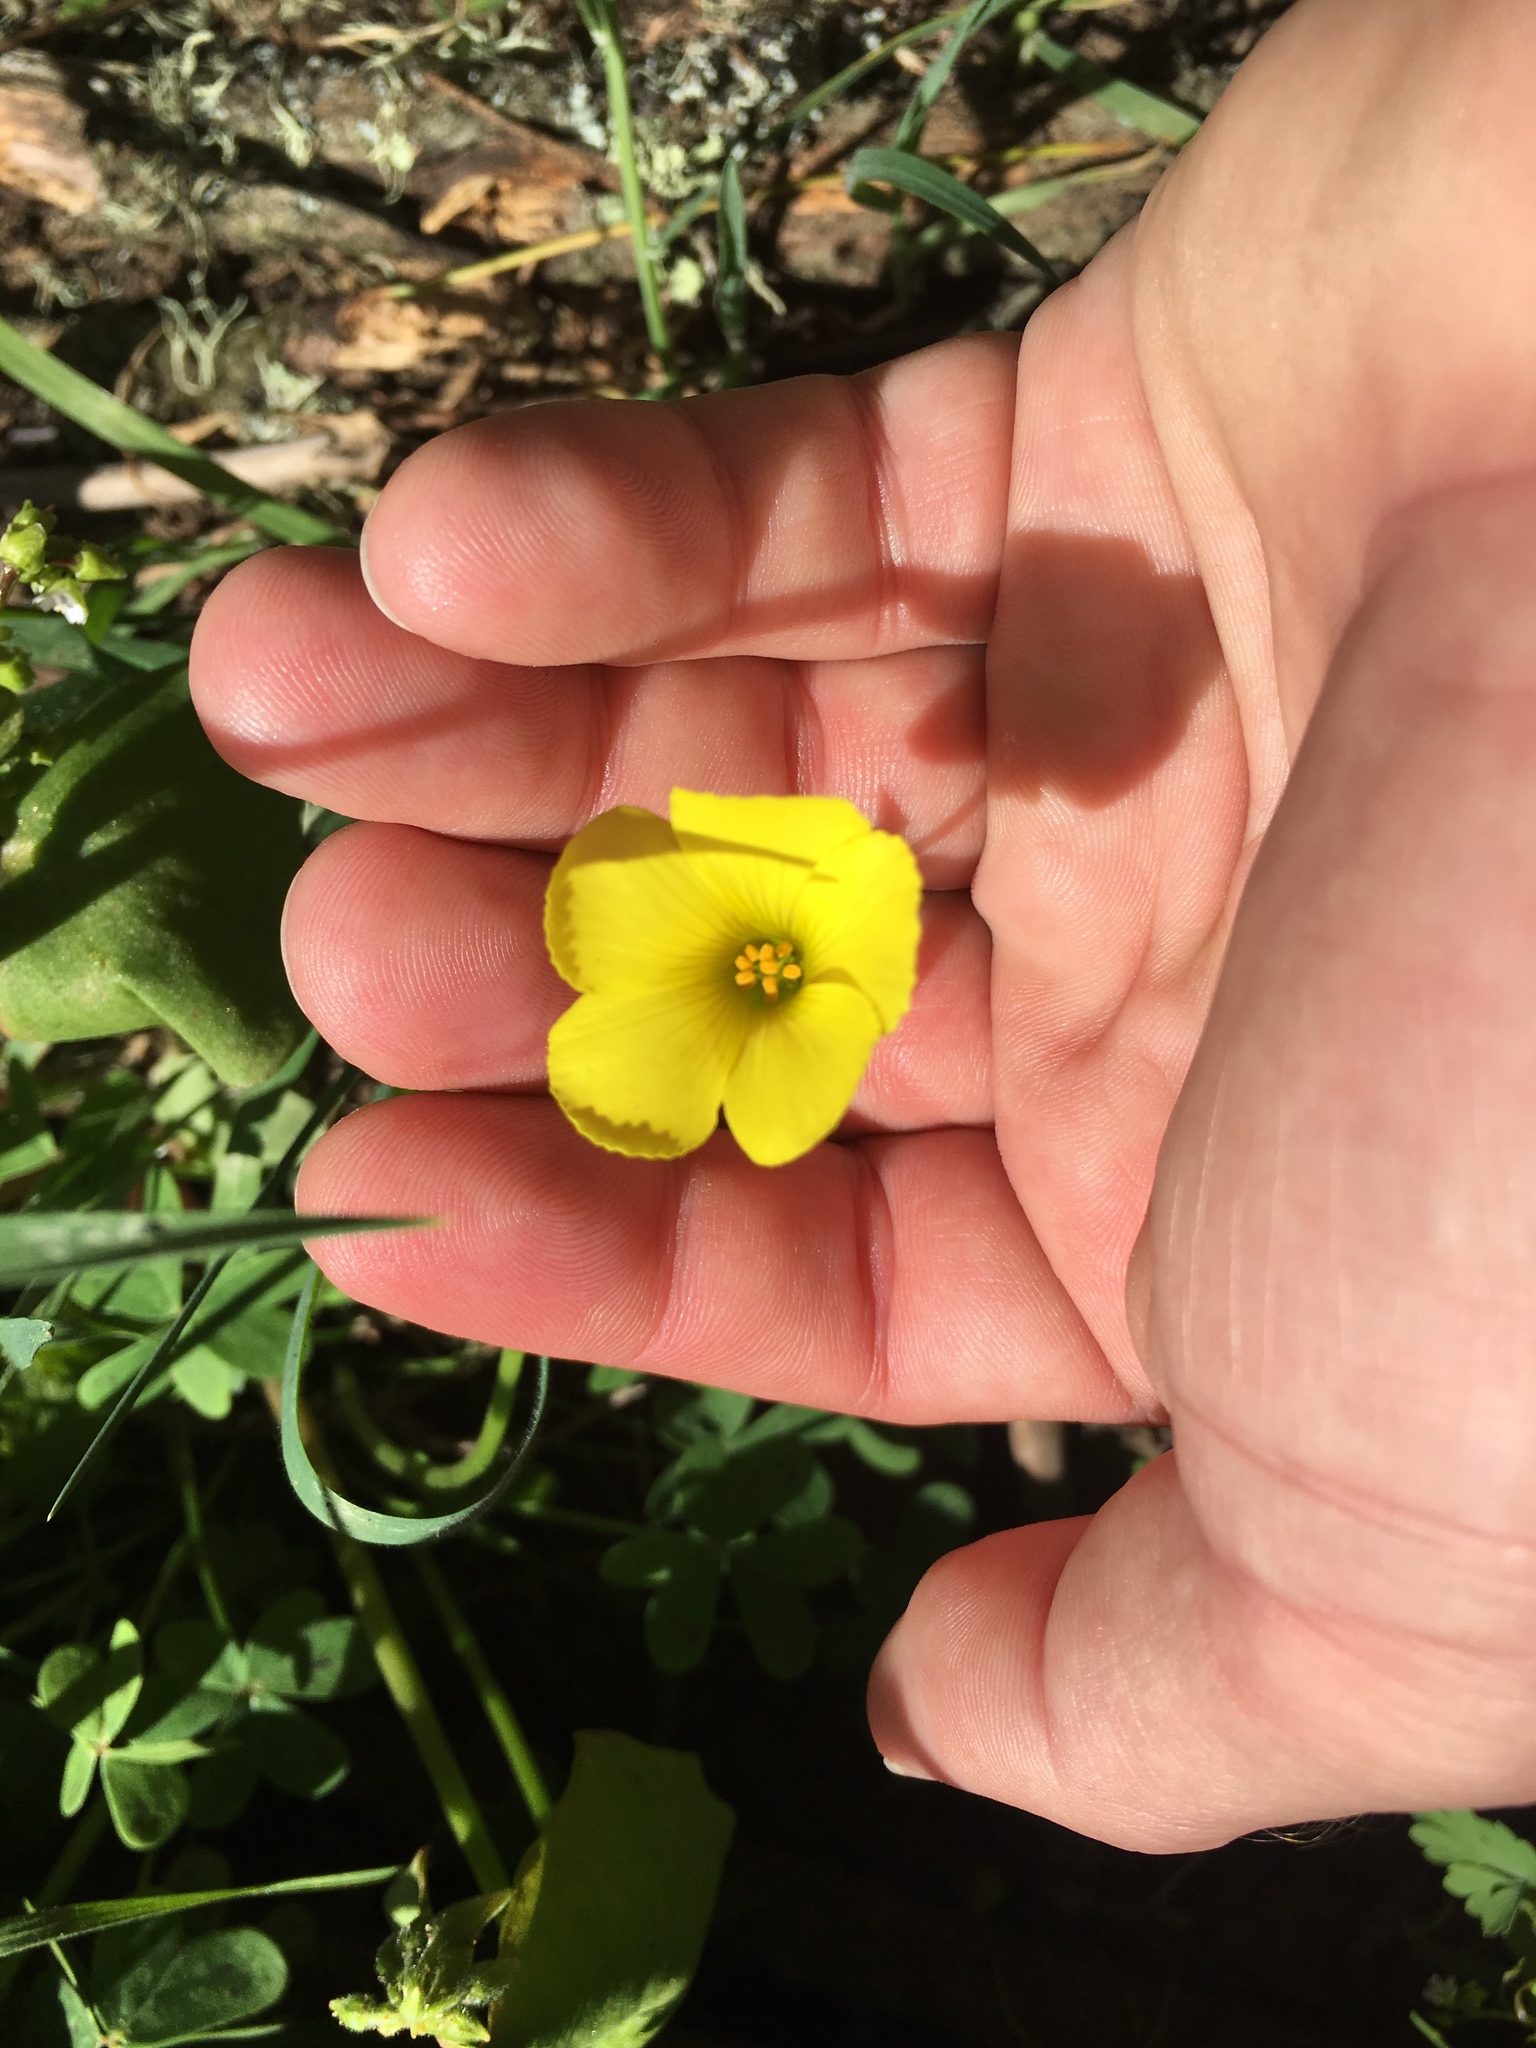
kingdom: Plantae
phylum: Tracheophyta
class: Magnoliopsida
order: Oxalidales
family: Oxalidaceae
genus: Oxalis
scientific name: Oxalis pes-caprae
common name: Bermuda-buttercup
